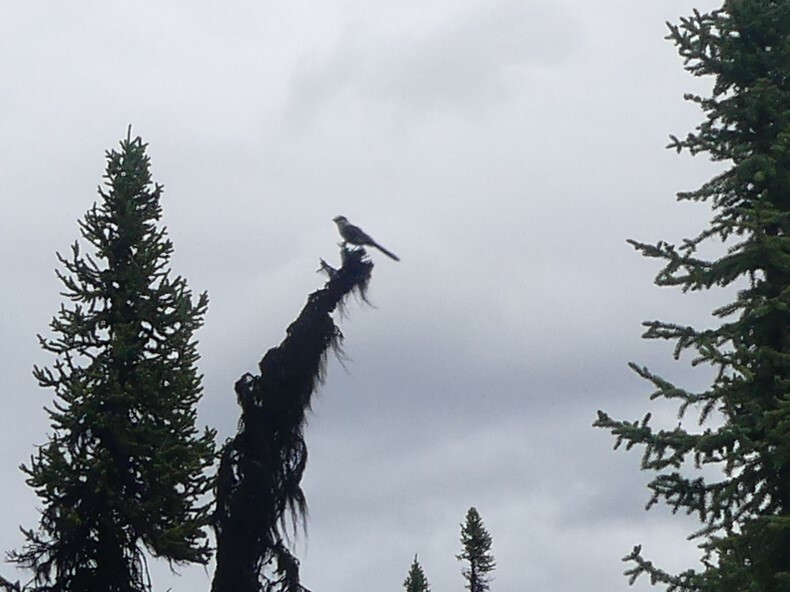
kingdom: Animalia
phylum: Chordata
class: Aves
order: Passeriformes
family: Corvidae
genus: Perisoreus
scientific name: Perisoreus canadensis
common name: Gray jay
